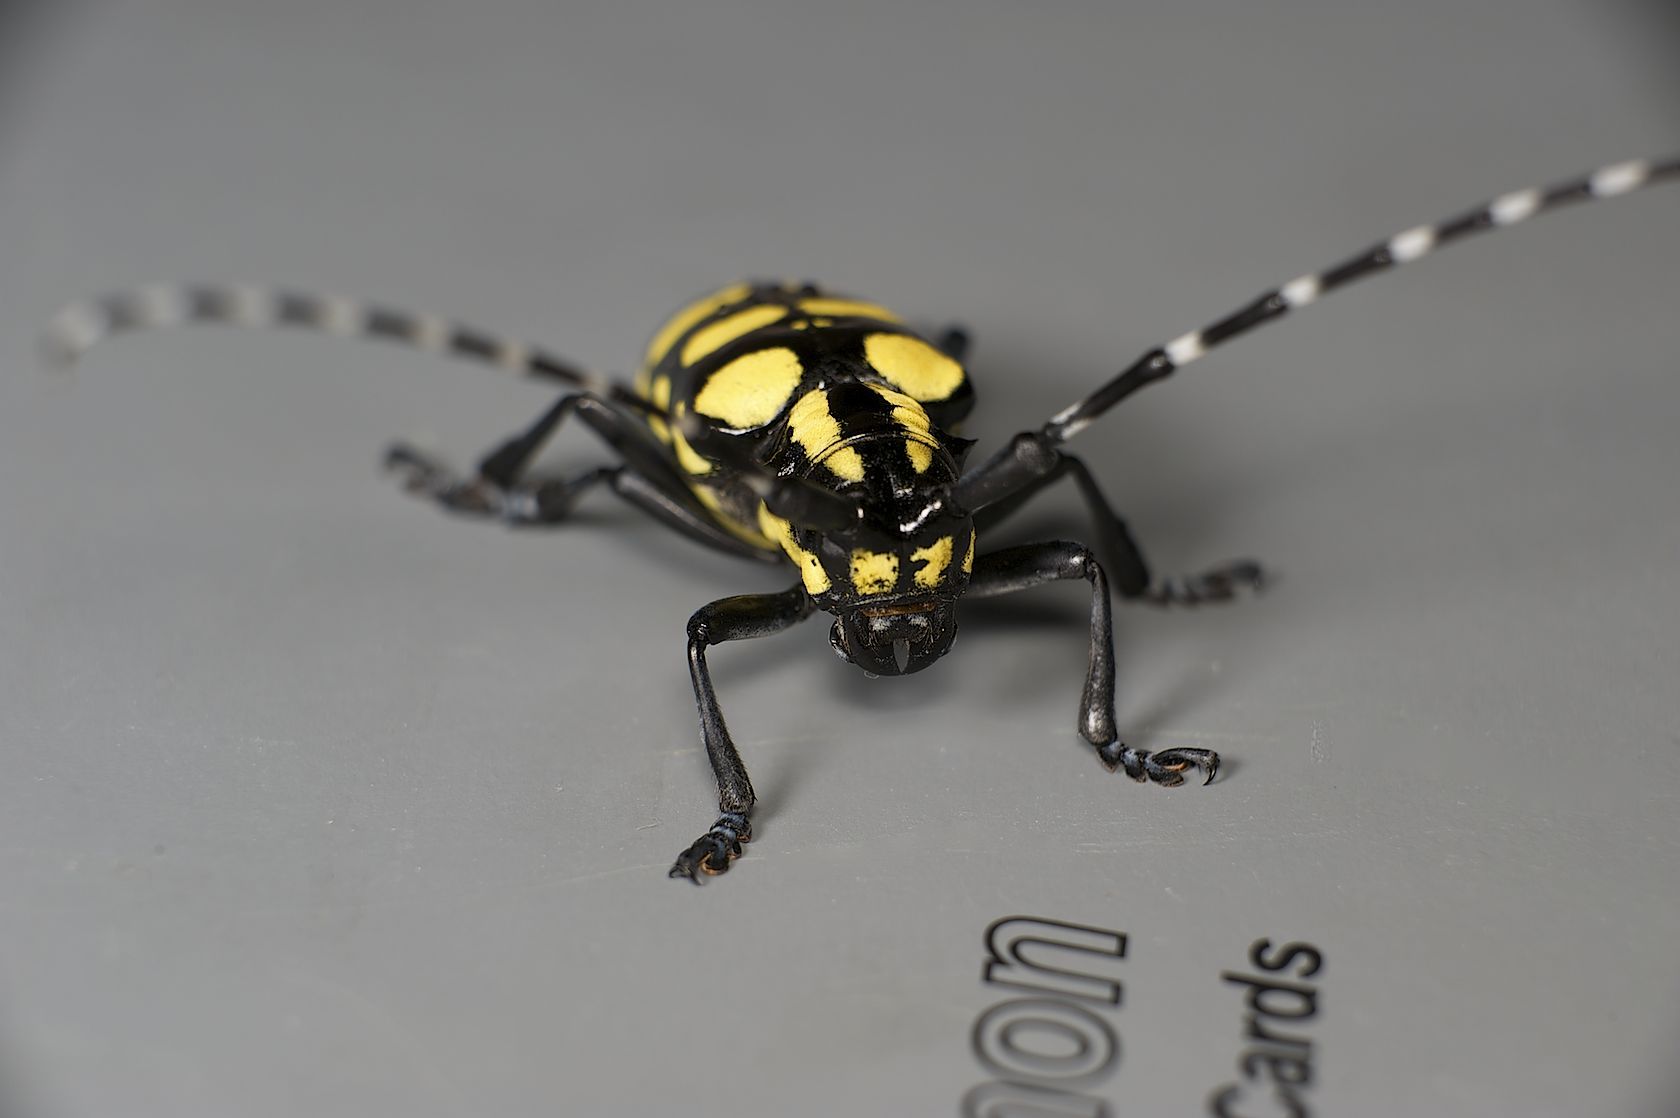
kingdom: Animalia
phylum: Arthropoda
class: Insecta
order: Coleoptera
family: Cerambycidae
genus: Anoplophora
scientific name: Anoplophora horsfieldii
